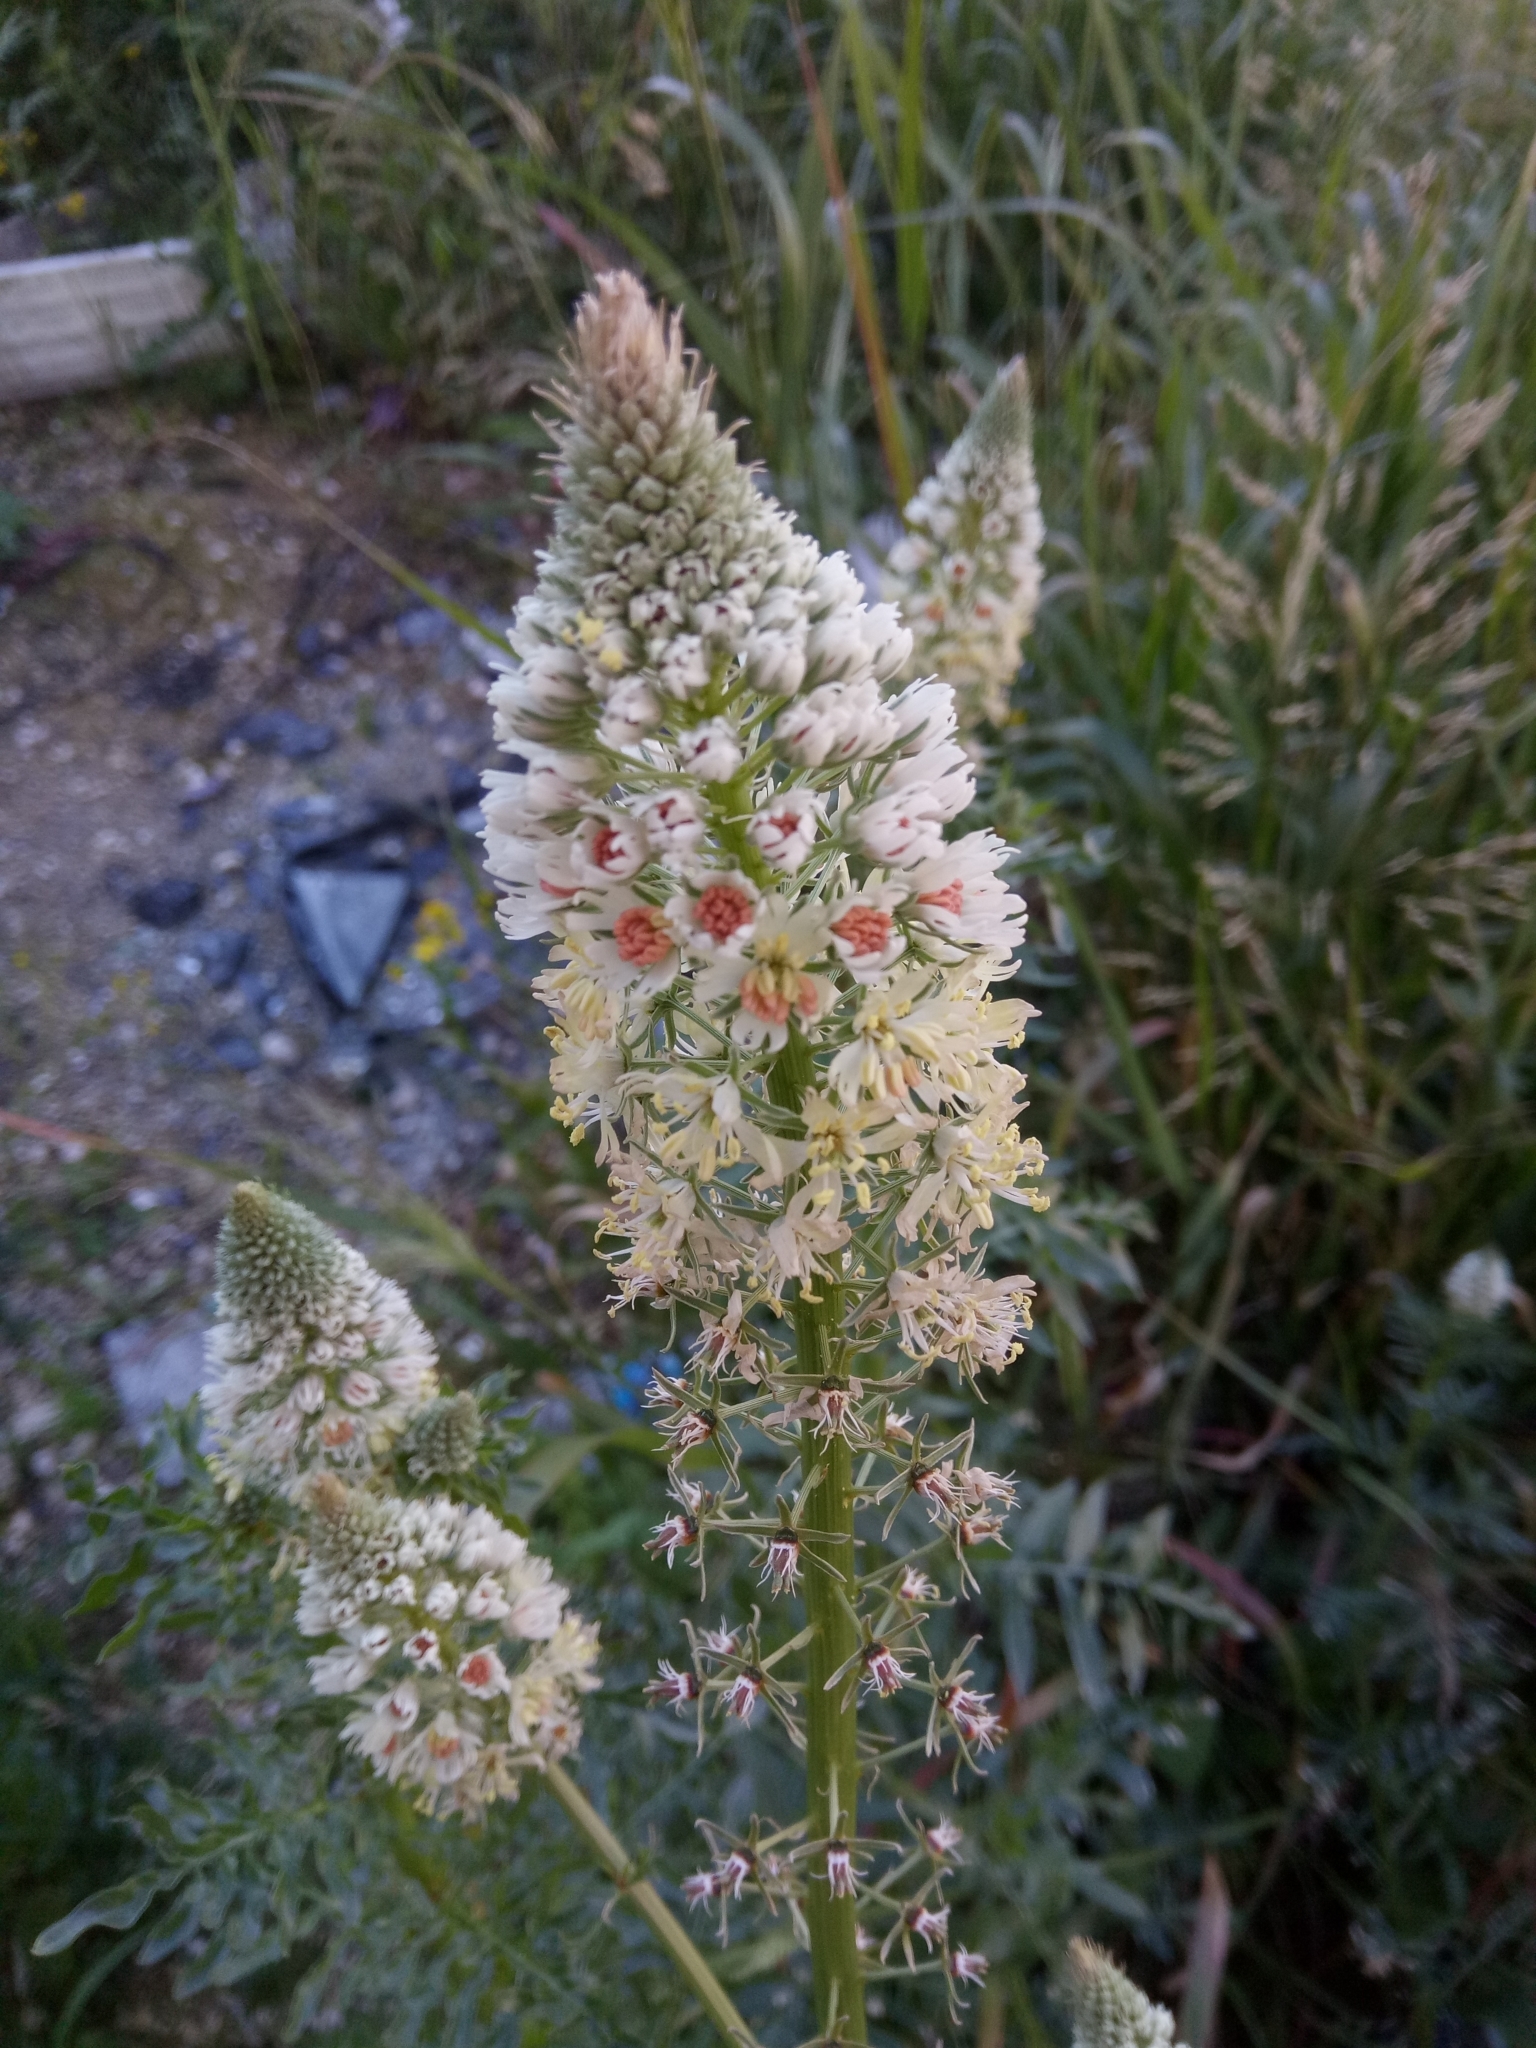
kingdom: Plantae
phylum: Tracheophyta
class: Magnoliopsida
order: Brassicales
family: Resedaceae
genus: Reseda
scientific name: Reseda alba
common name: White mignonette
